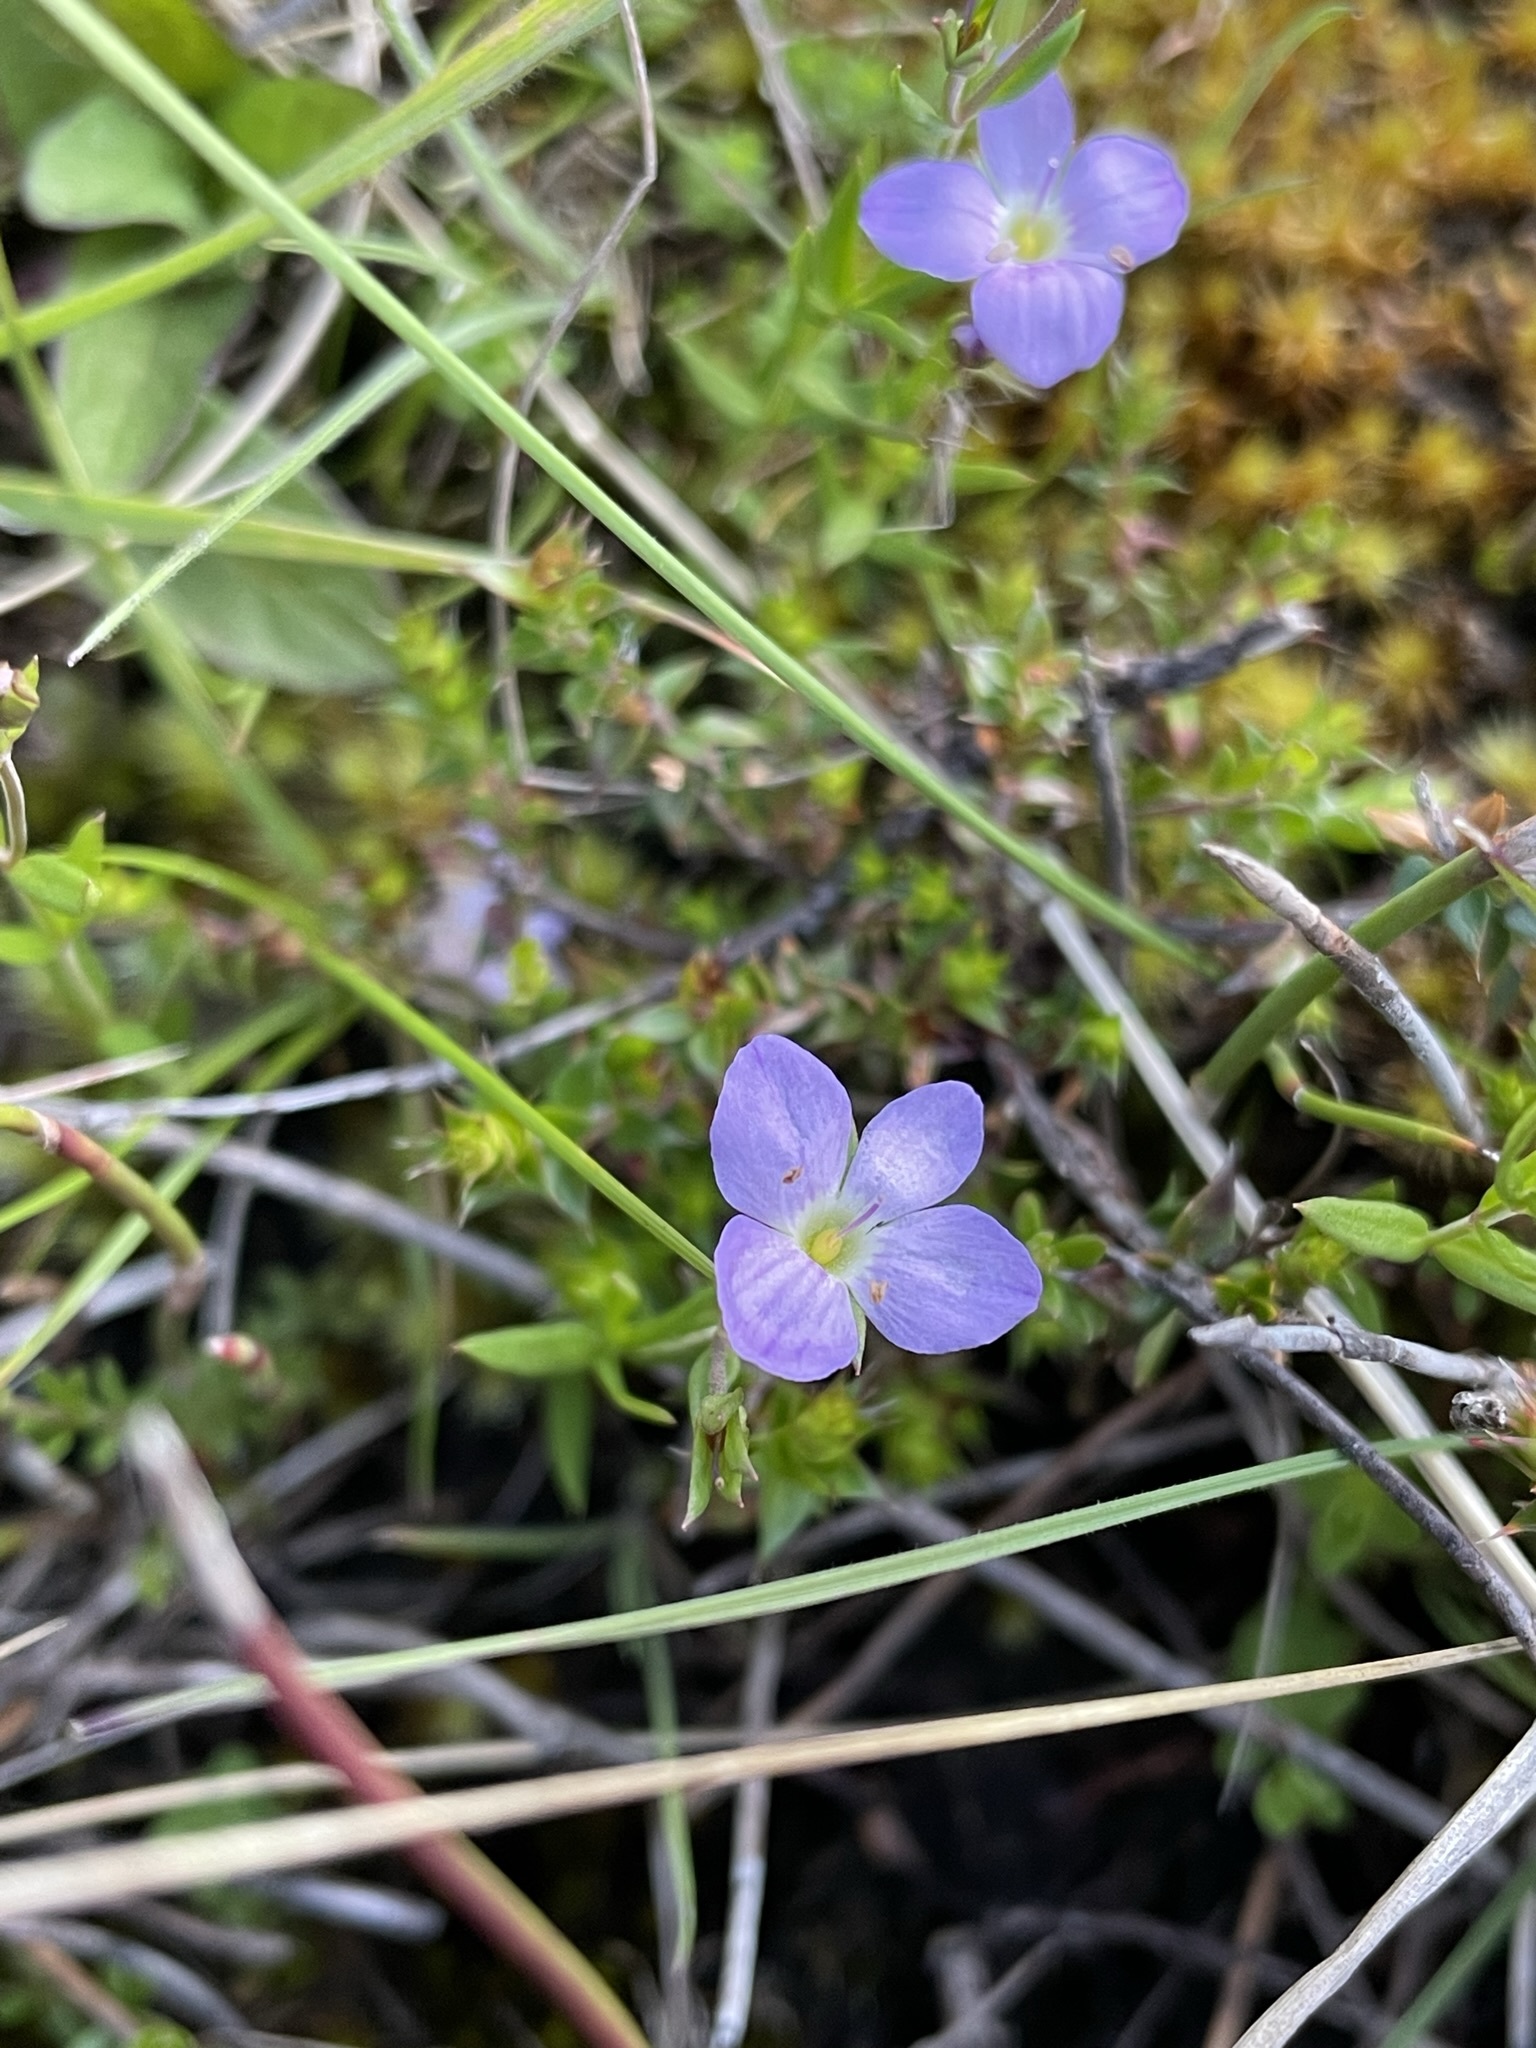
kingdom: Plantae
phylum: Tracheophyta
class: Magnoliopsida
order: Lamiales
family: Plantaginaceae
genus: Veronica
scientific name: Veronica gracilis
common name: Slender speedwell
